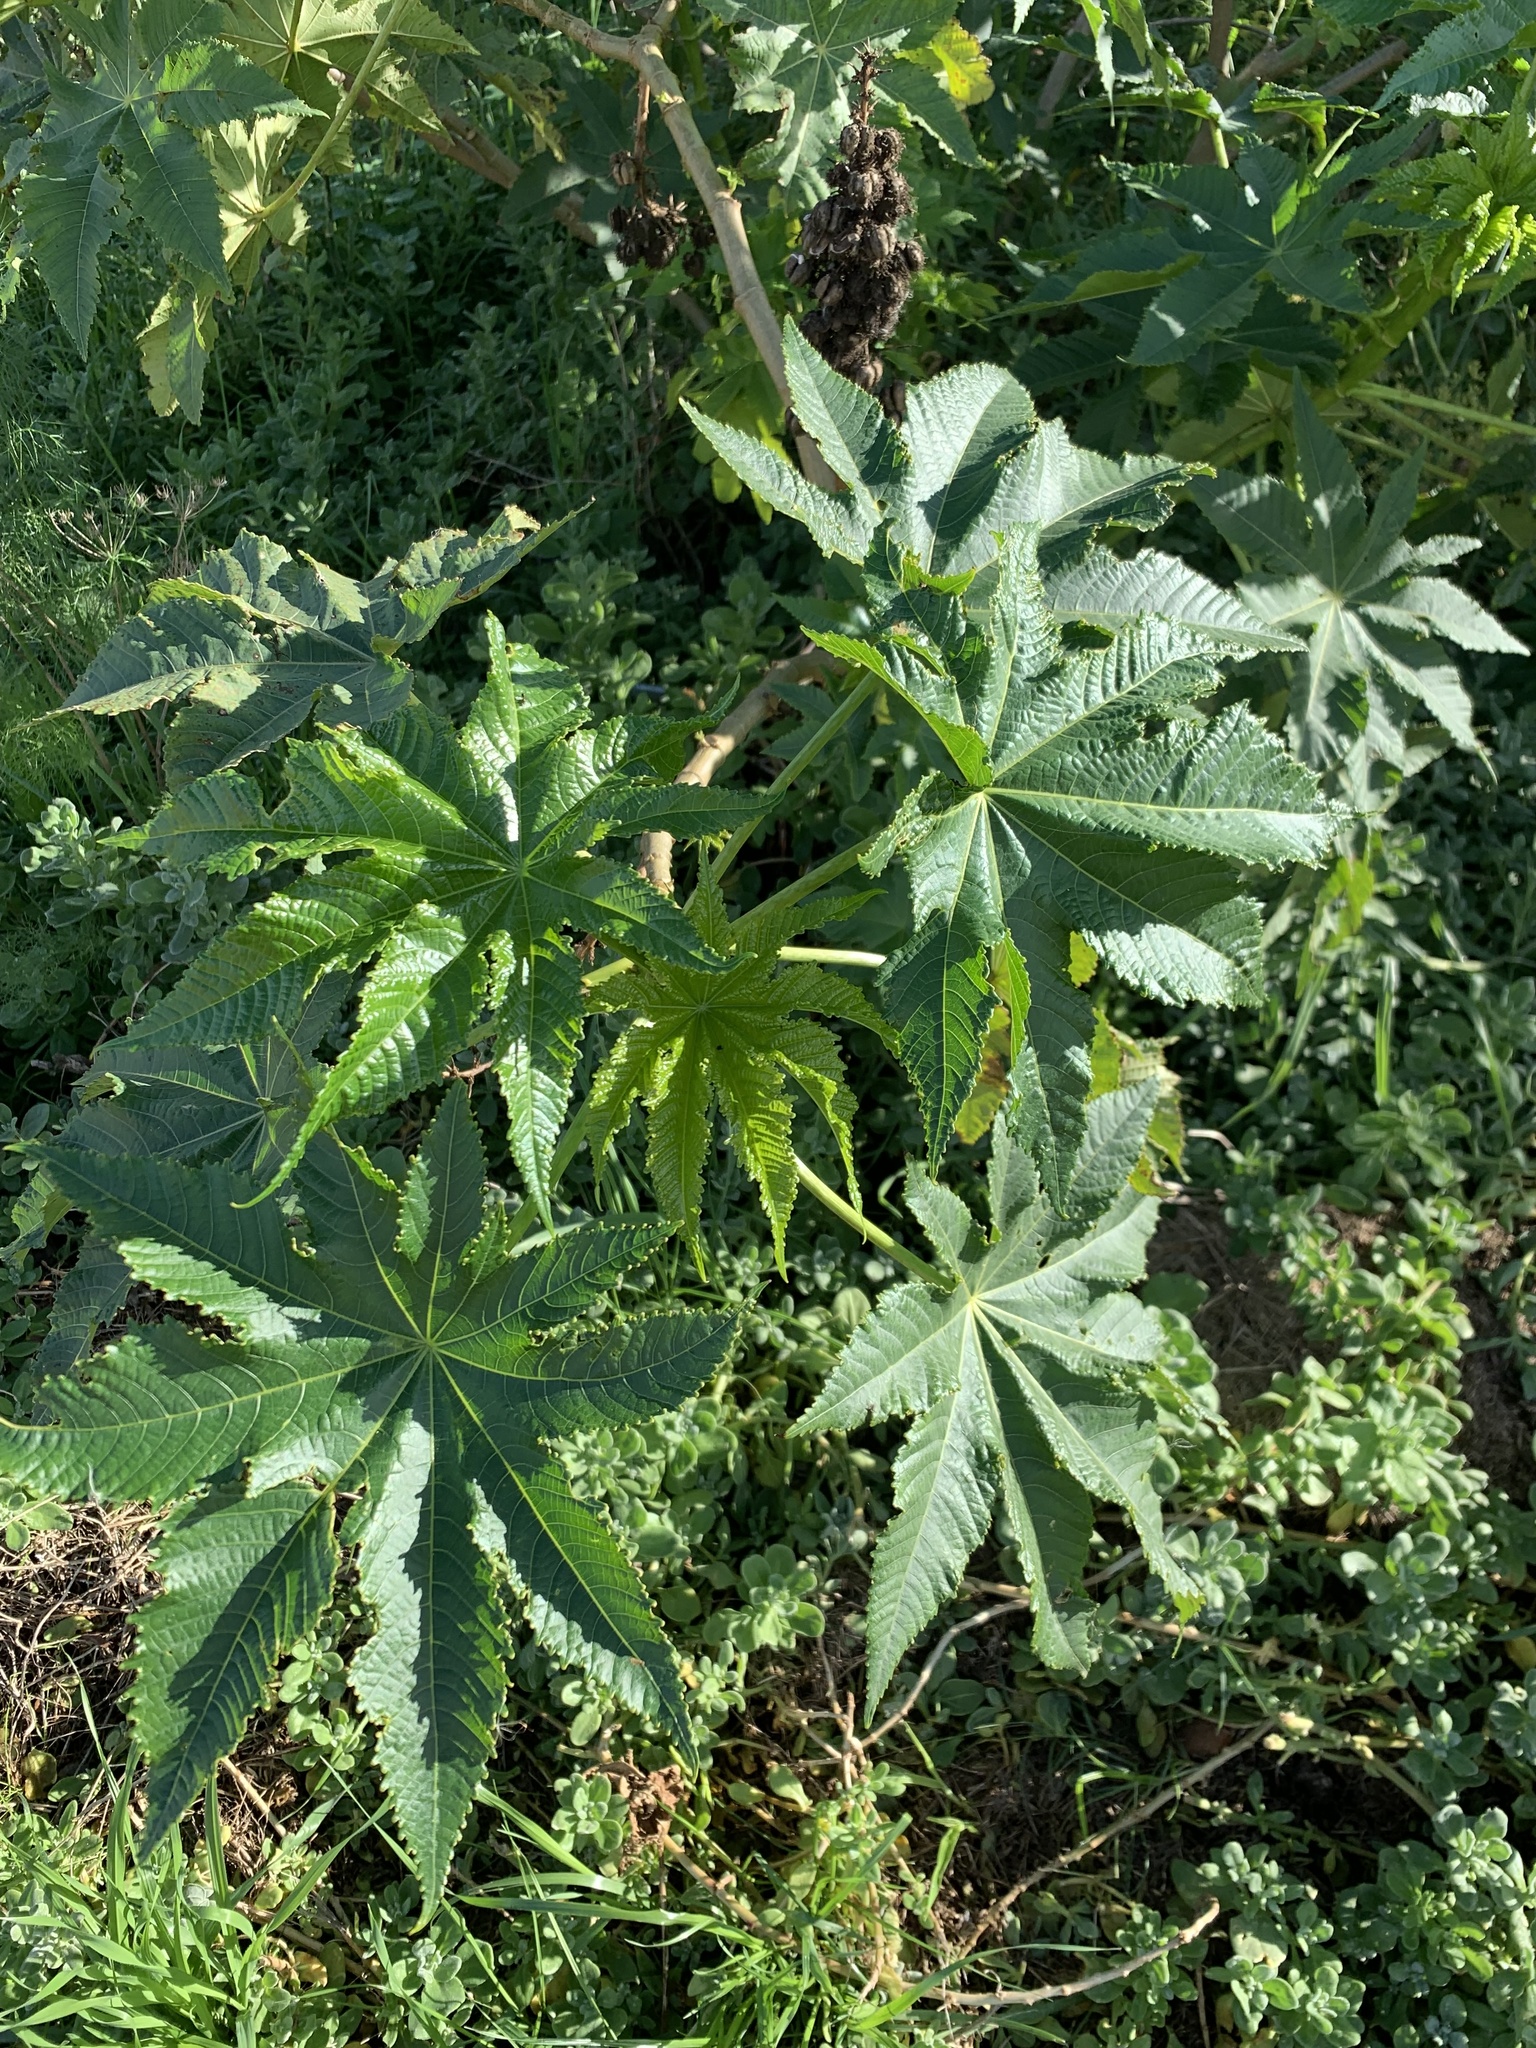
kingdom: Plantae
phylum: Tracheophyta
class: Magnoliopsida
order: Malpighiales
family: Euphorbiaceae
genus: Ricinus
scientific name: Ricinus communis
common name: Castor-oil-plant
